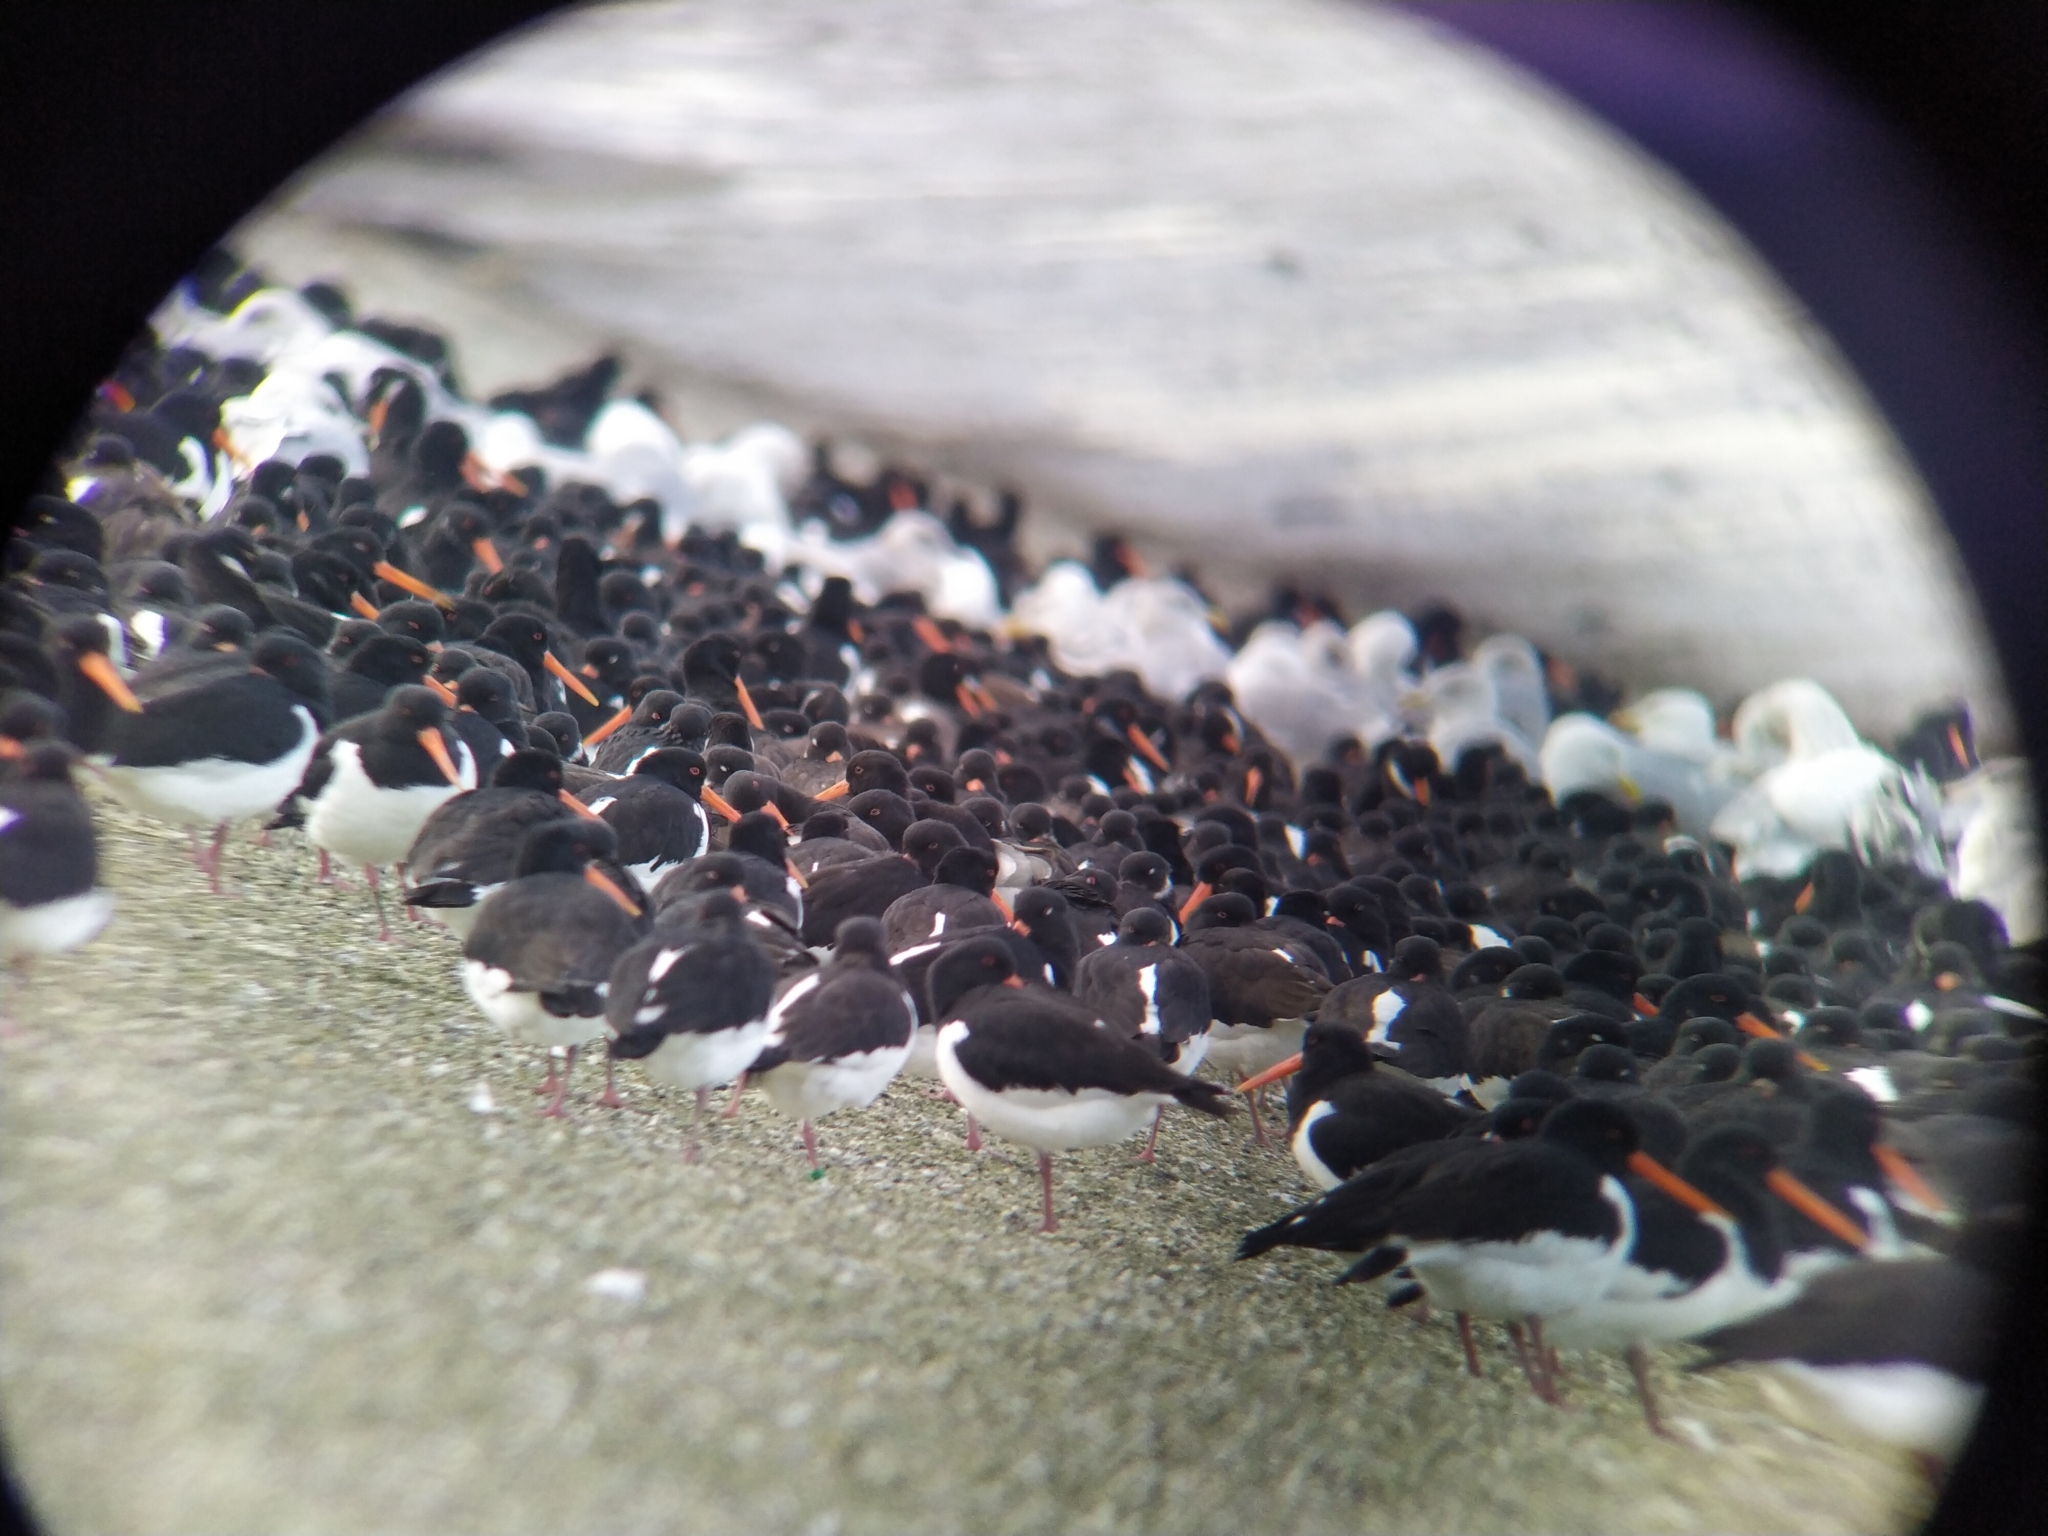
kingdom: Animalia
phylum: Chordata
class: Aves
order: Charadriiformes
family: Haematopodidae
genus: Haematopus
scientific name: Haematopus ostralegus
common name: Eurasian oystercatcher
